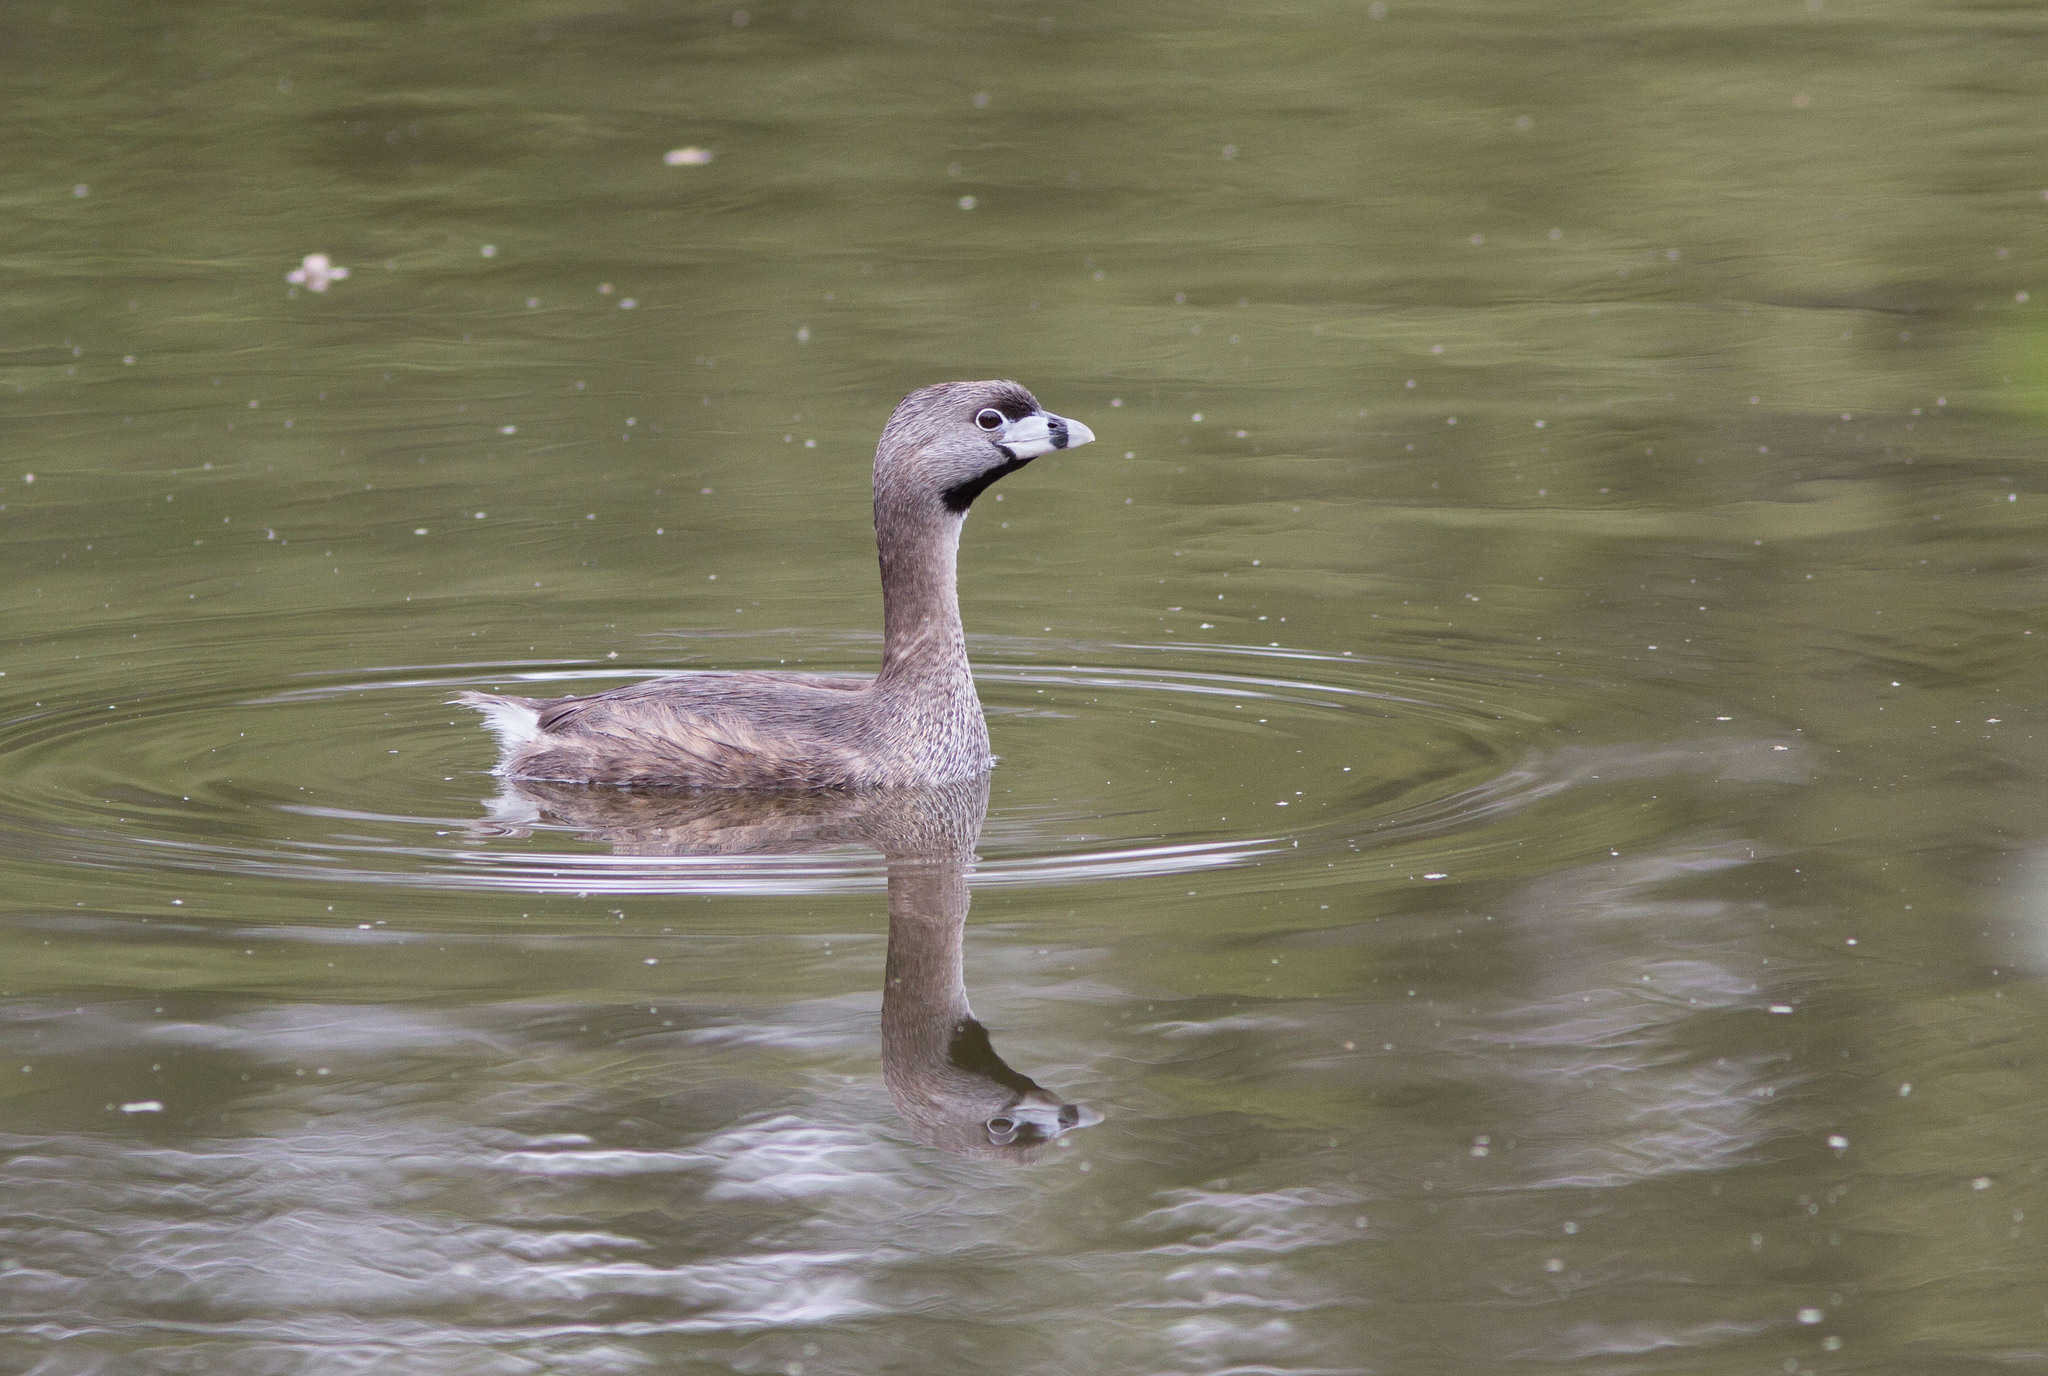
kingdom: Animalia
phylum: Chordata
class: Aves
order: Podicipediformes
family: Podicipedidae
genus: Podilymbus
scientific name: Podilymbus podiceps
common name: Pied-billed grebe
